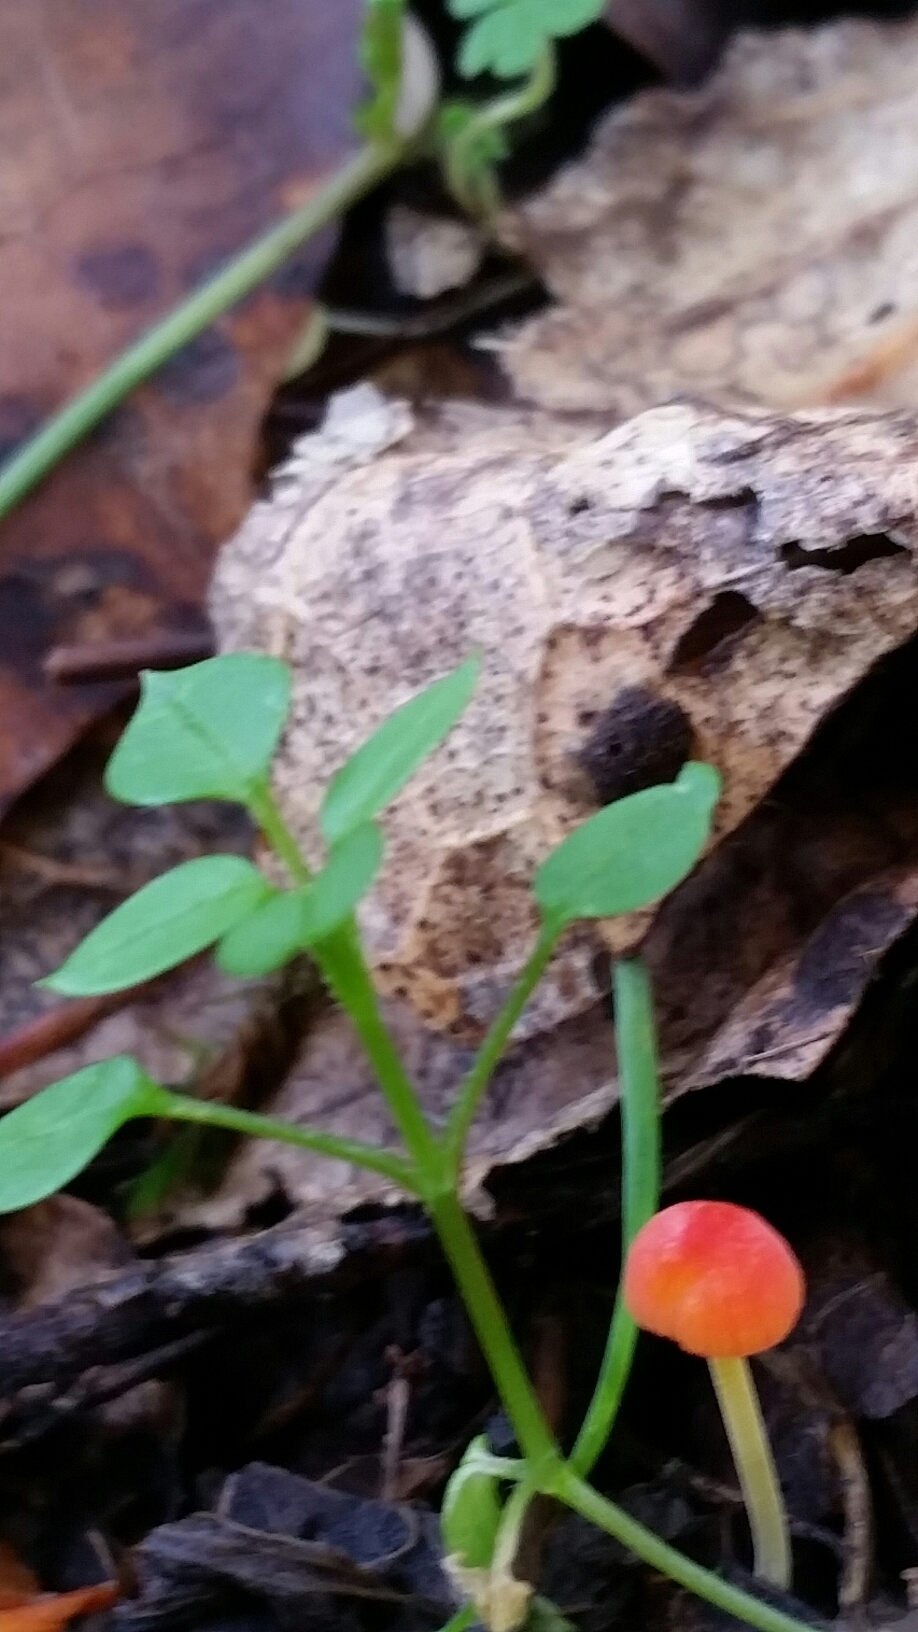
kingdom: Fungi
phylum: Basidiomycota
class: Agaricomycetes
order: Agaricales
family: Mycenaceae
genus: Mycena
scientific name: Mycena acicula
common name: Orange bonnet
